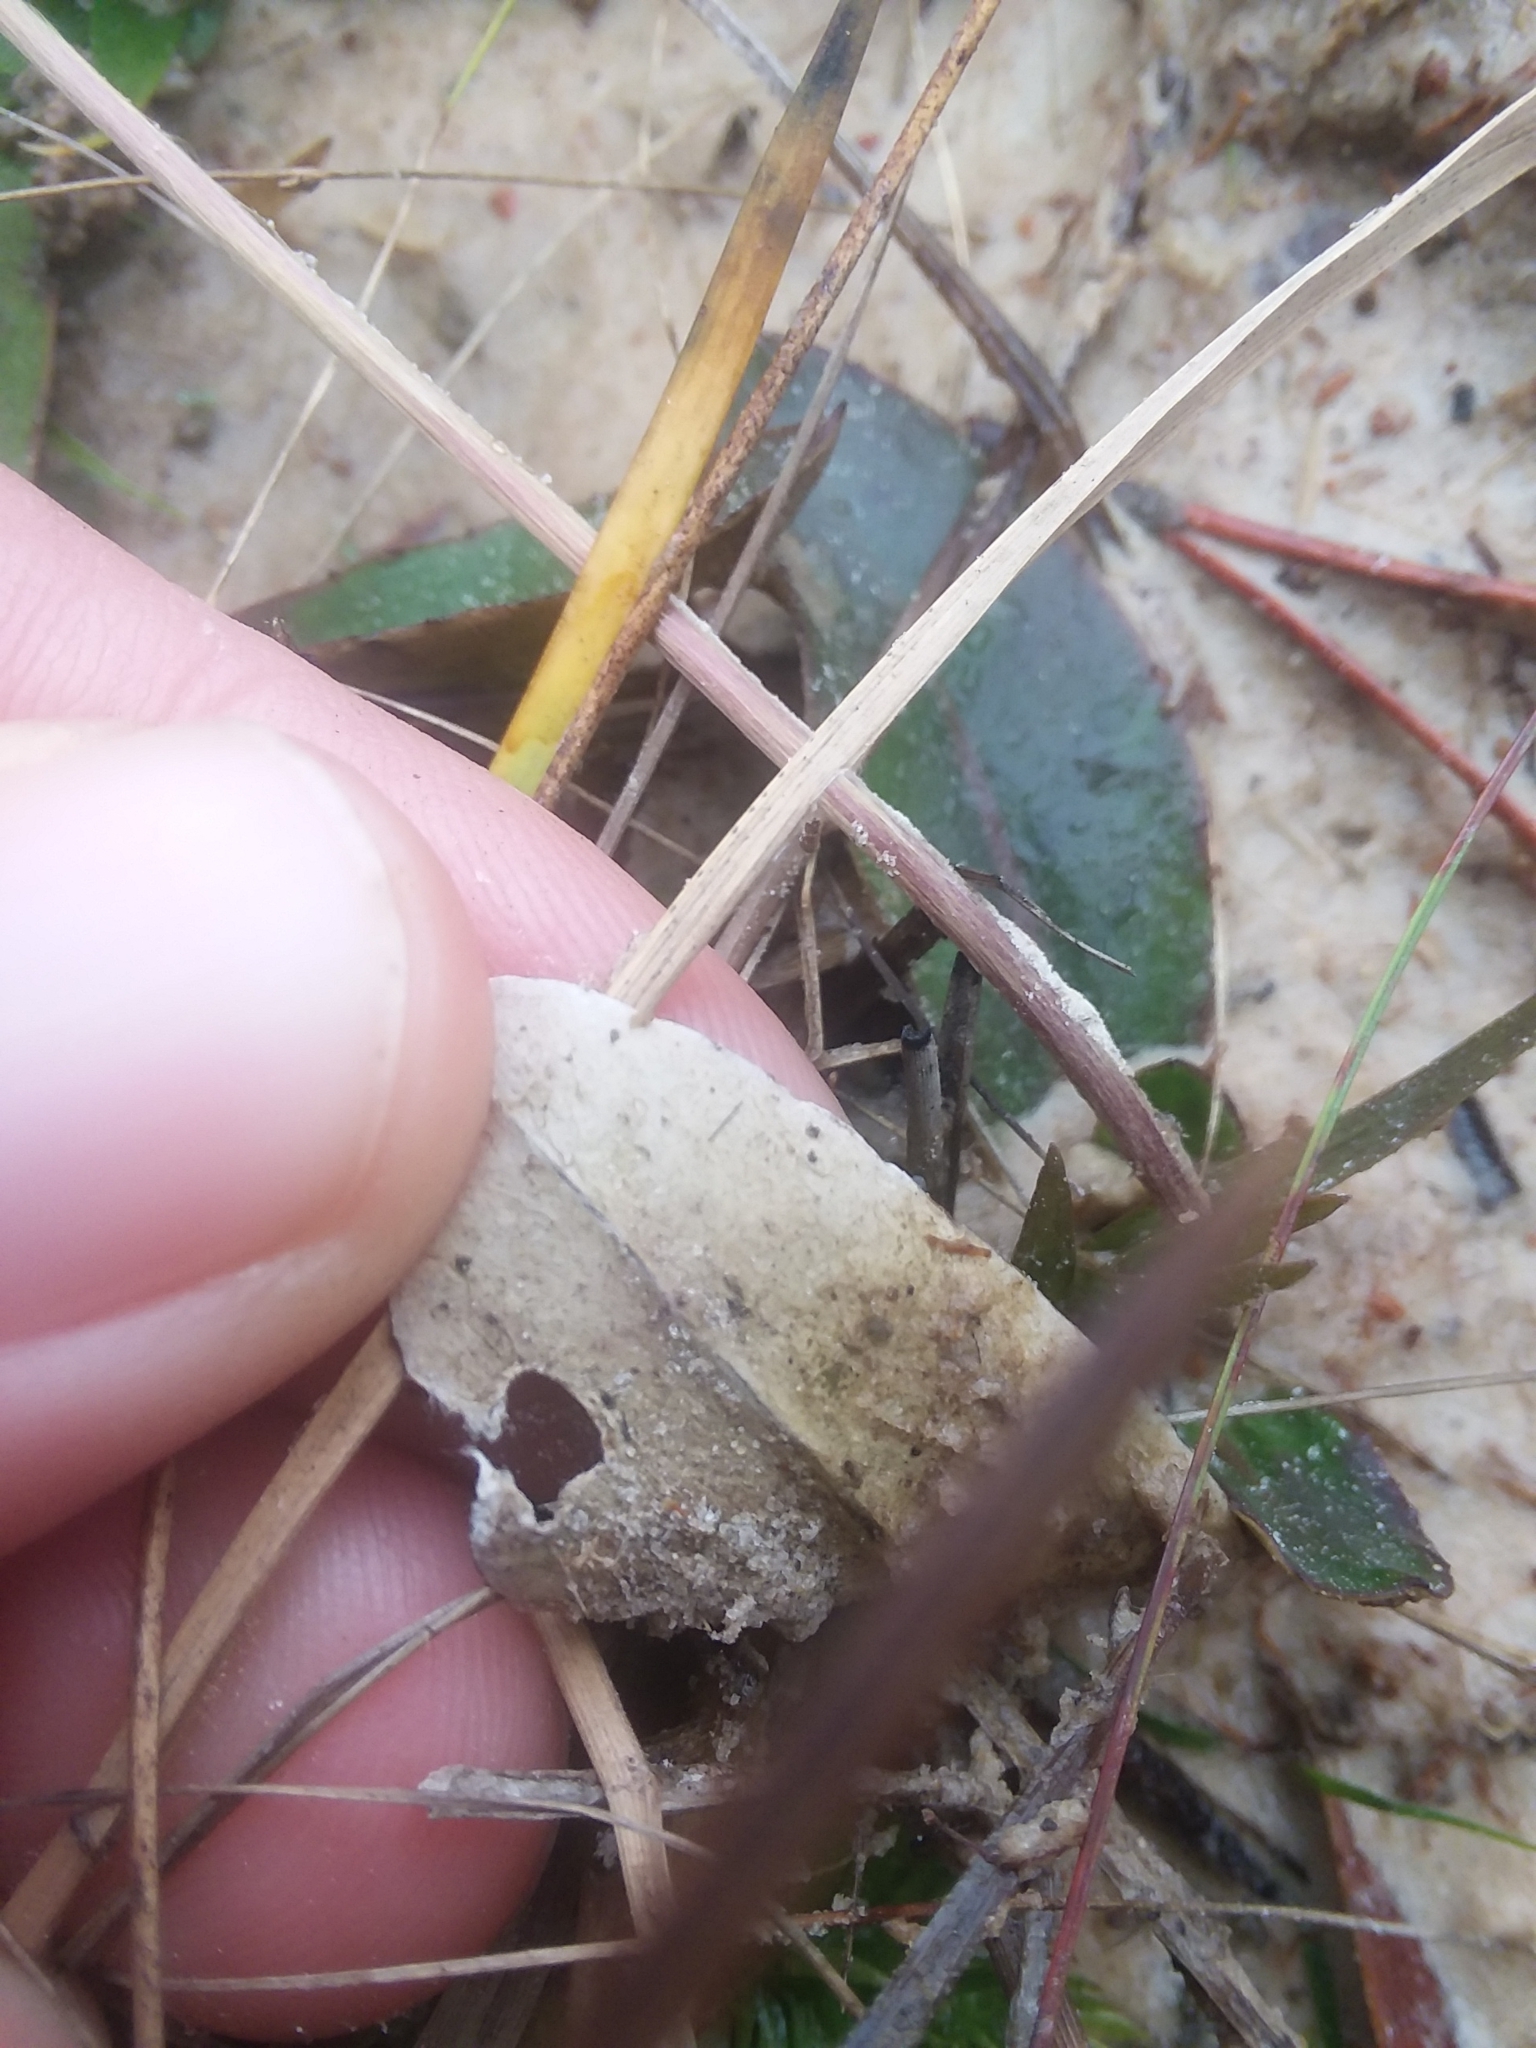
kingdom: Plantae
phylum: Tracheophyta
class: Magnoliopsida
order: Asterales
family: Asteraceae
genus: Chaptalia
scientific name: Chaptalia tomentosa
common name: Woolly sunbonnet
